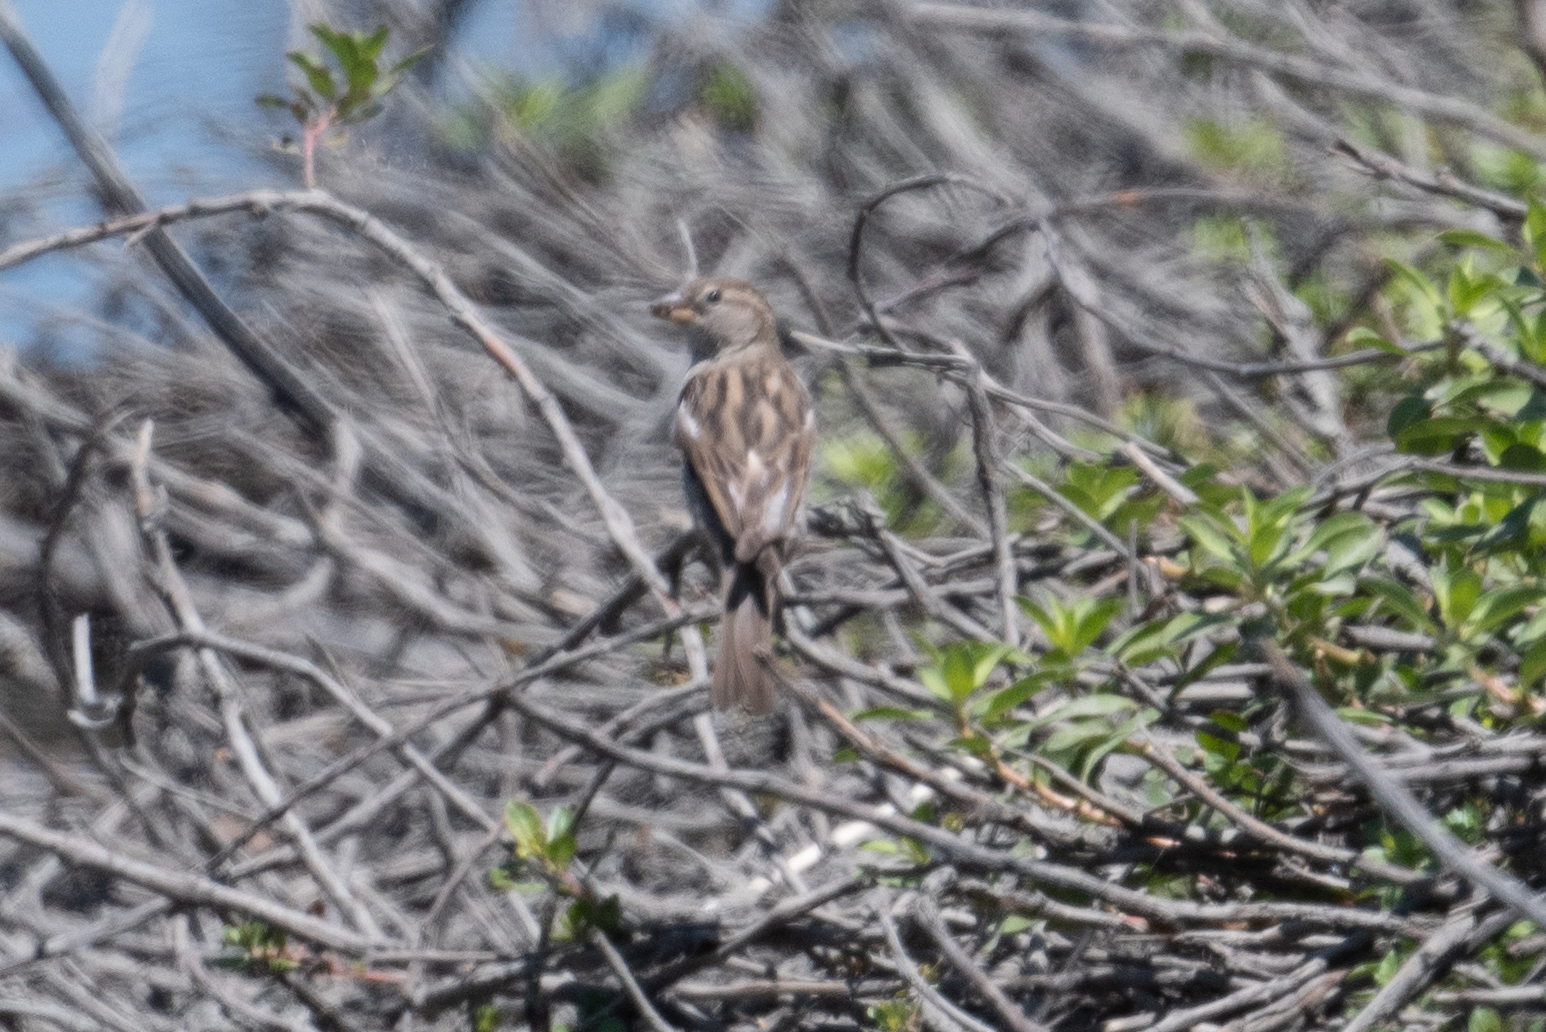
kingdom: Animalia
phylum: Chordata
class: Aves
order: Passeriformes
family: Passeridae
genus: Passer
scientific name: Passer domesticus
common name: House sparrow
